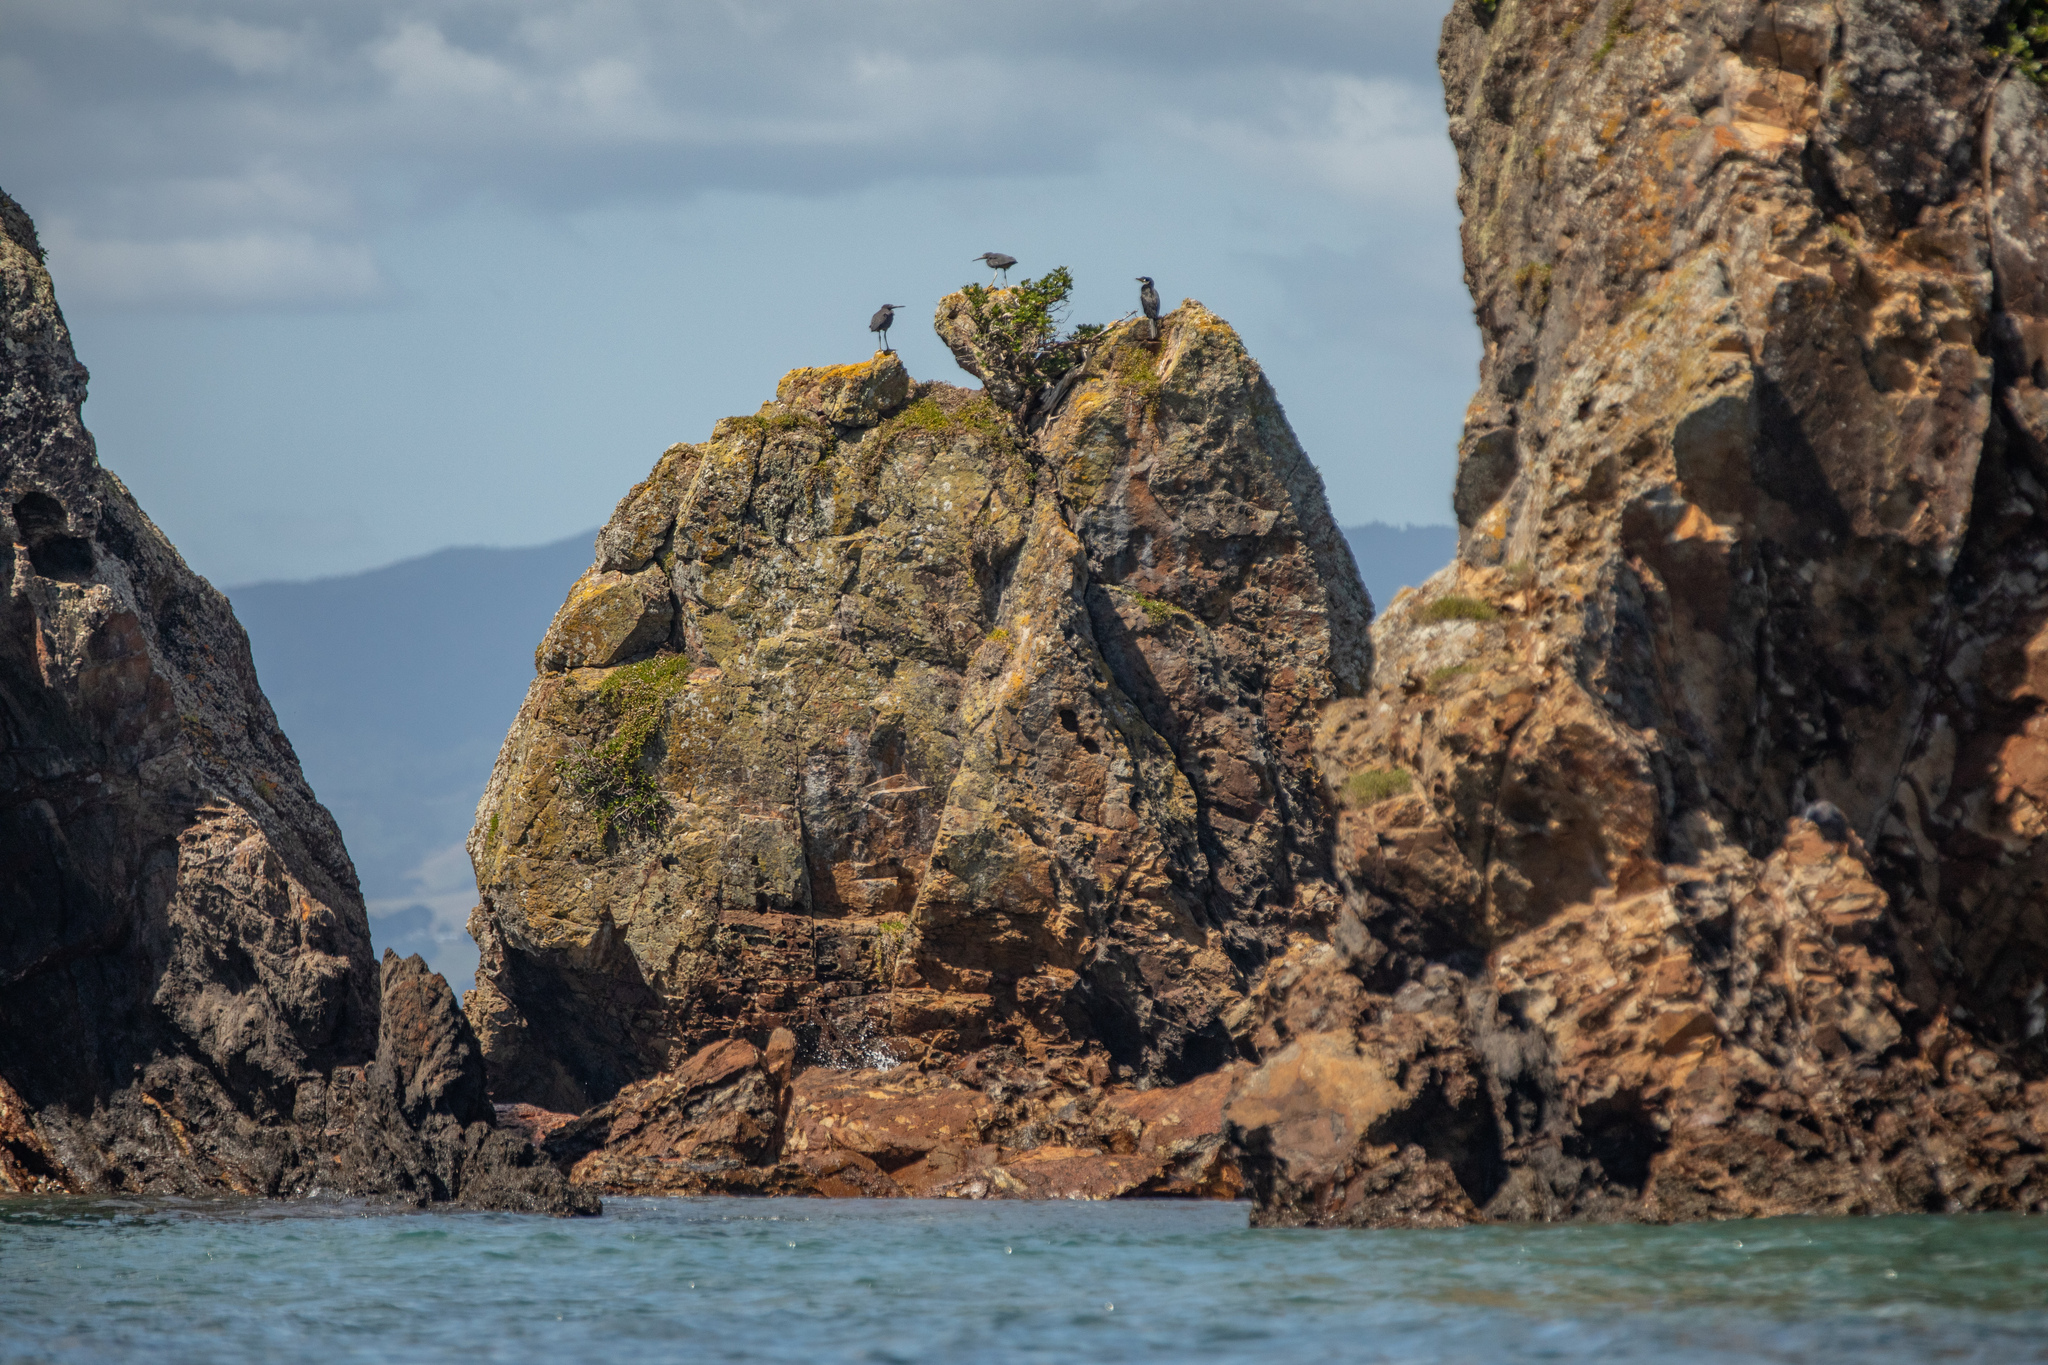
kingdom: Animalia
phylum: Chordata
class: Aves
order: Pelecaniformes
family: Ardeidae
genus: Egretta
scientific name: Egretta sacra
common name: Pacific reef heron
